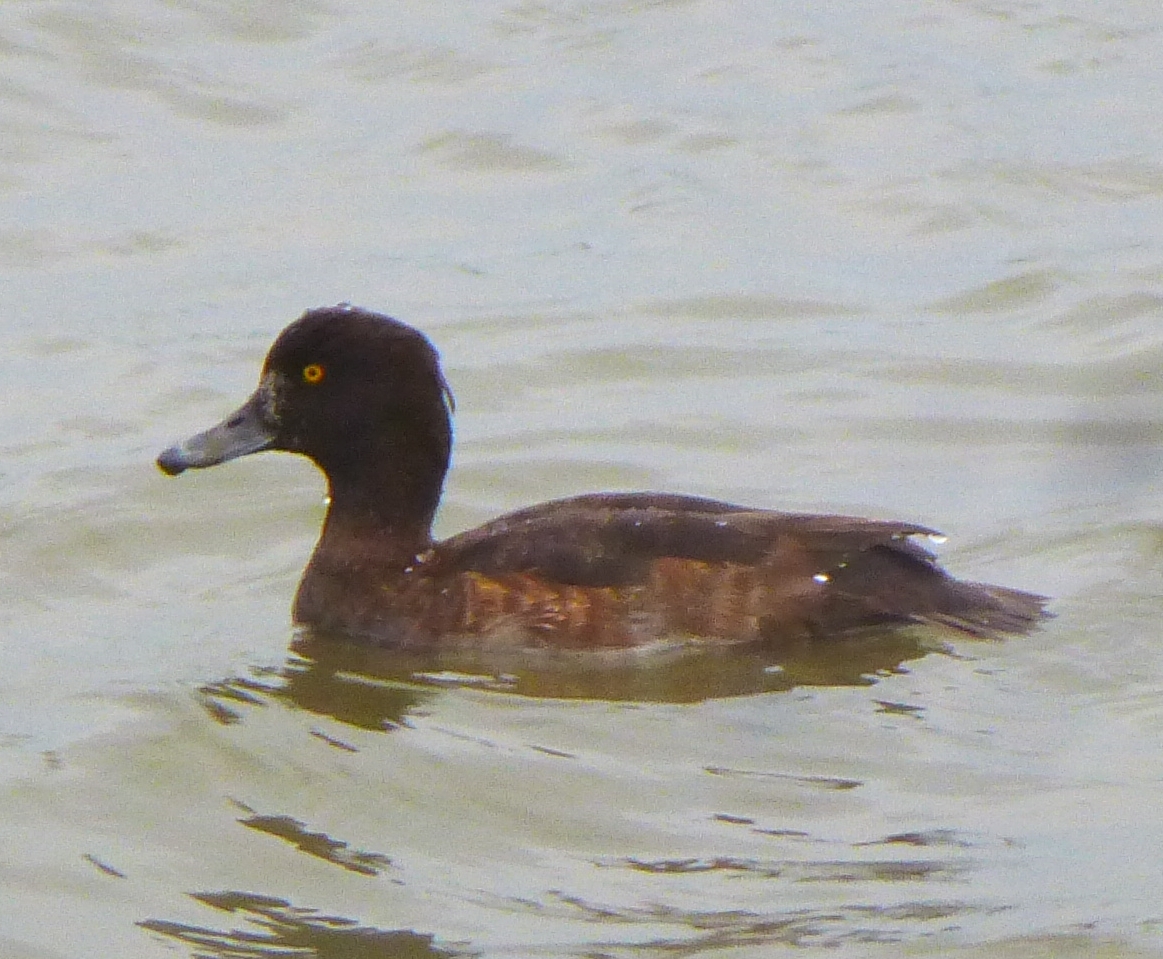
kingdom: Animalia
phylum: Chordata
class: Aves
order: Anseriformes
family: Anatidae
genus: Aythya
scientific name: Aythya fuligula
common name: Tufted duck
